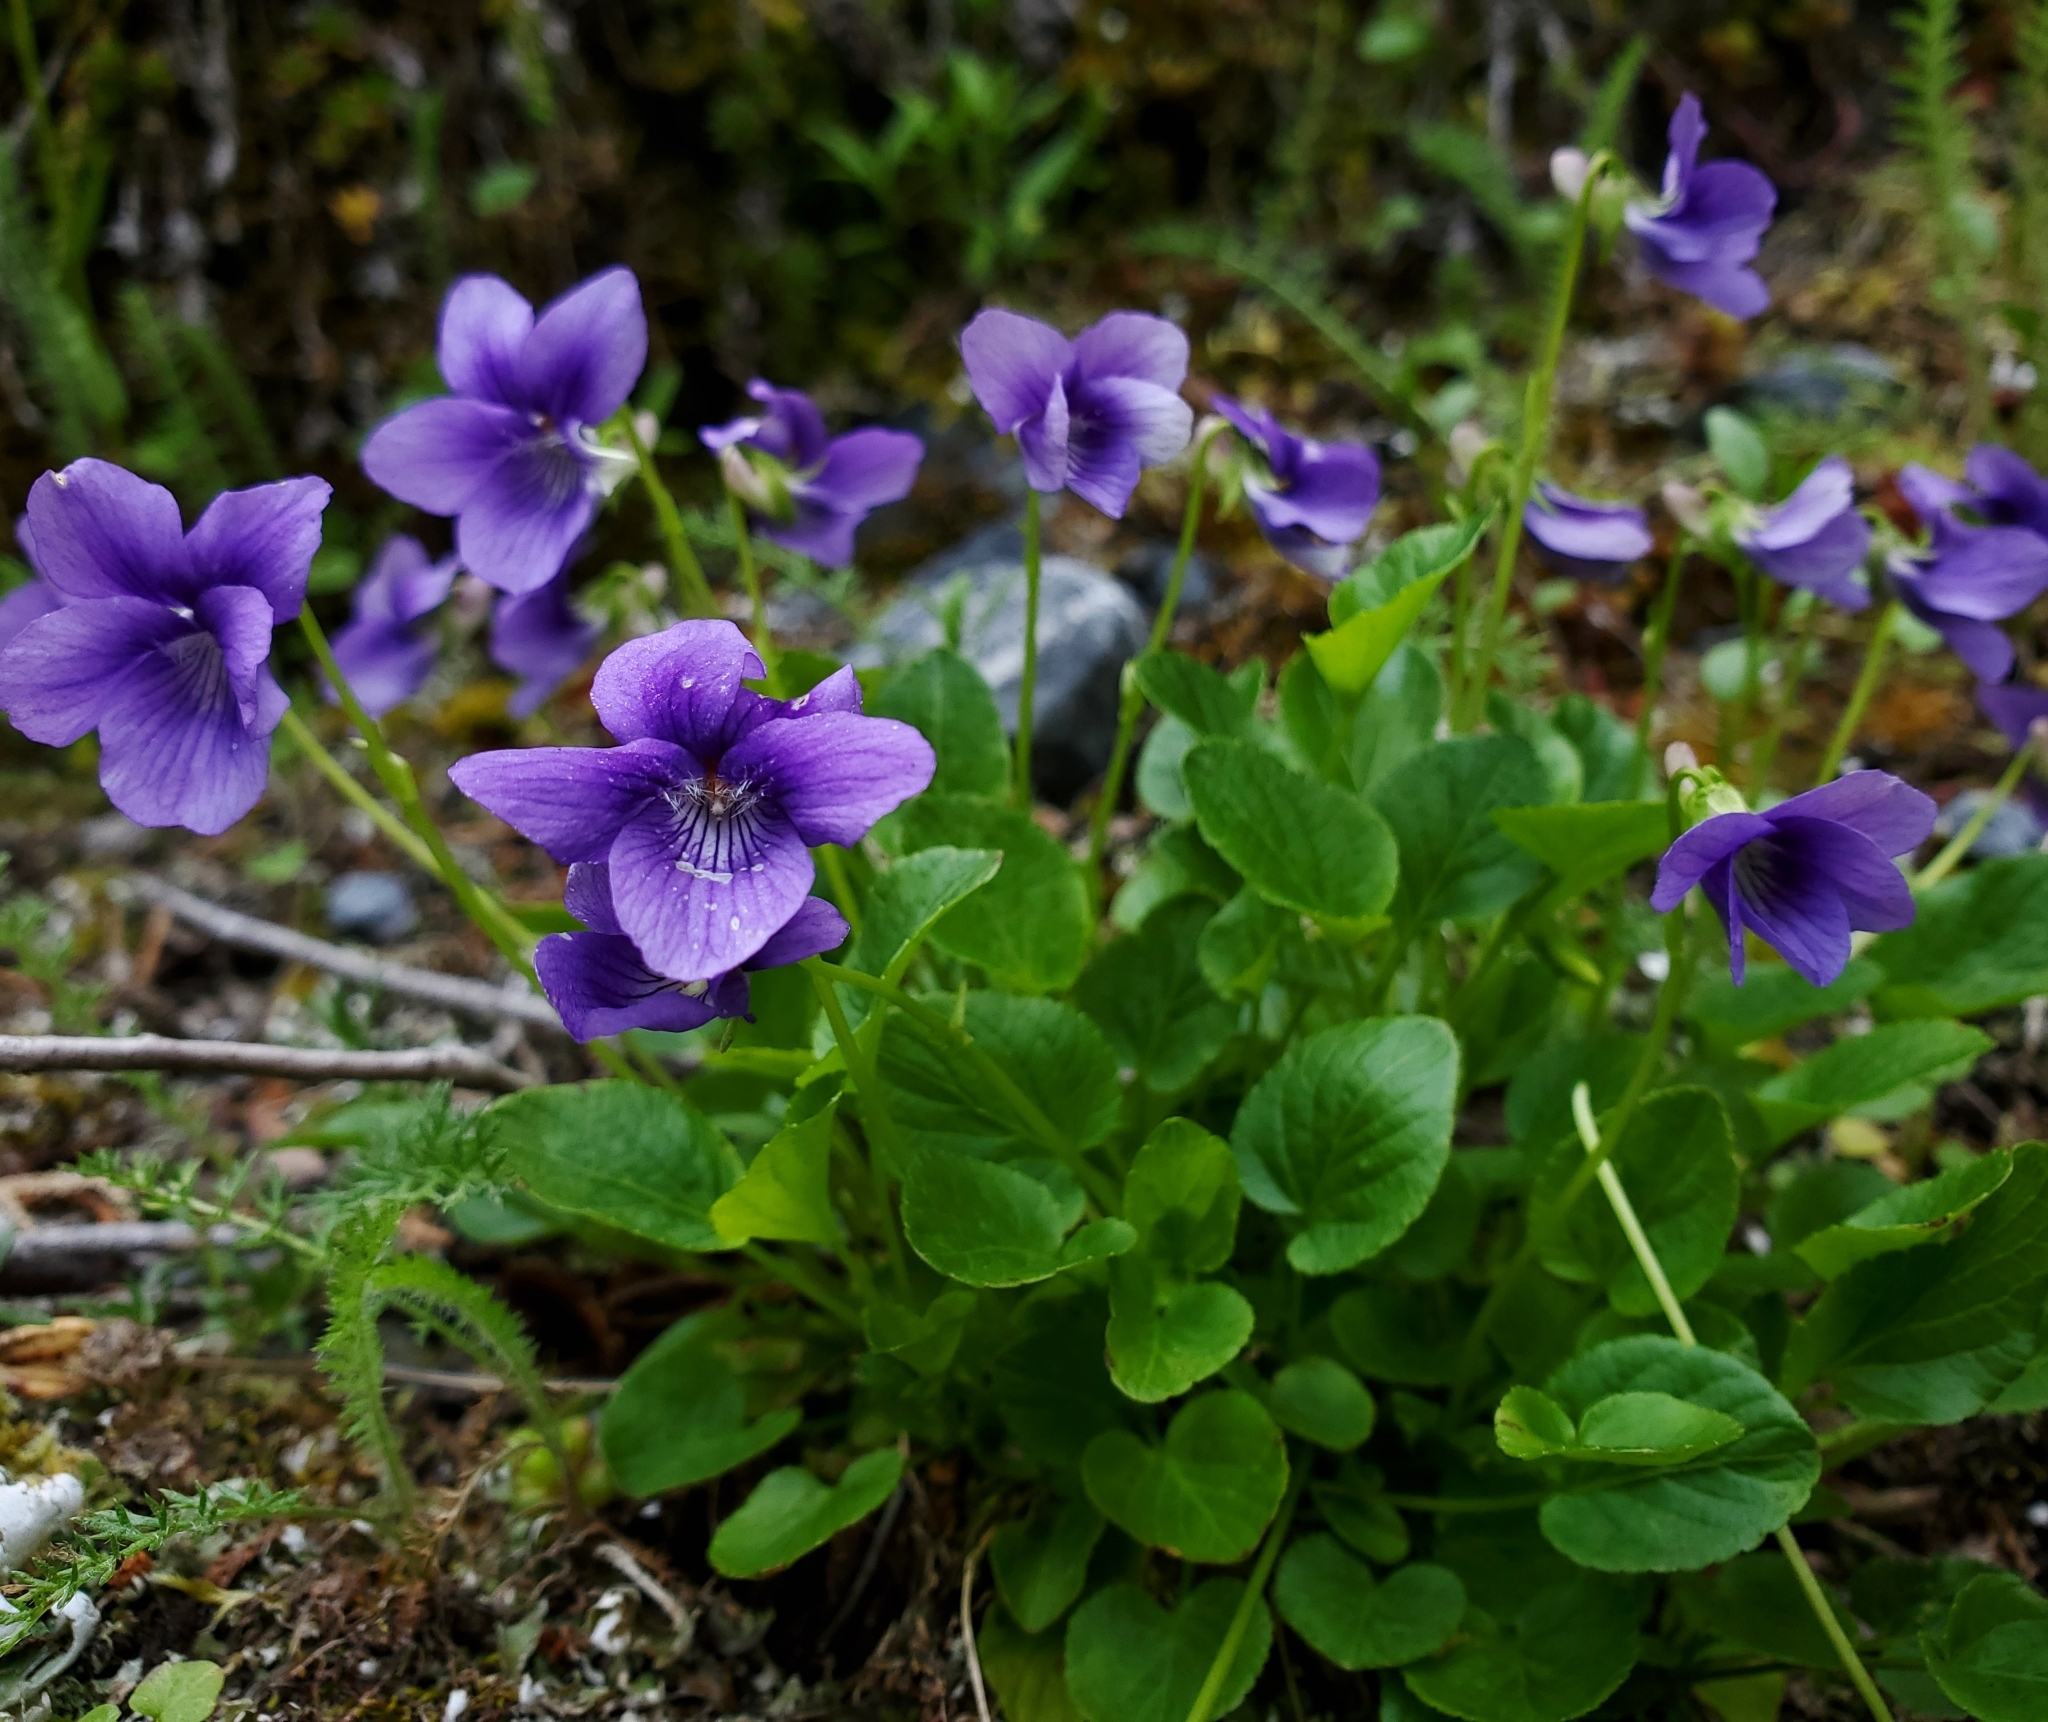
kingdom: Plantae
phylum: Tracheophyta
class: Magnoliopsida
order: Malpighiales
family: Violaceae
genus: Viola
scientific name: Viola adunca
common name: Sand violet
